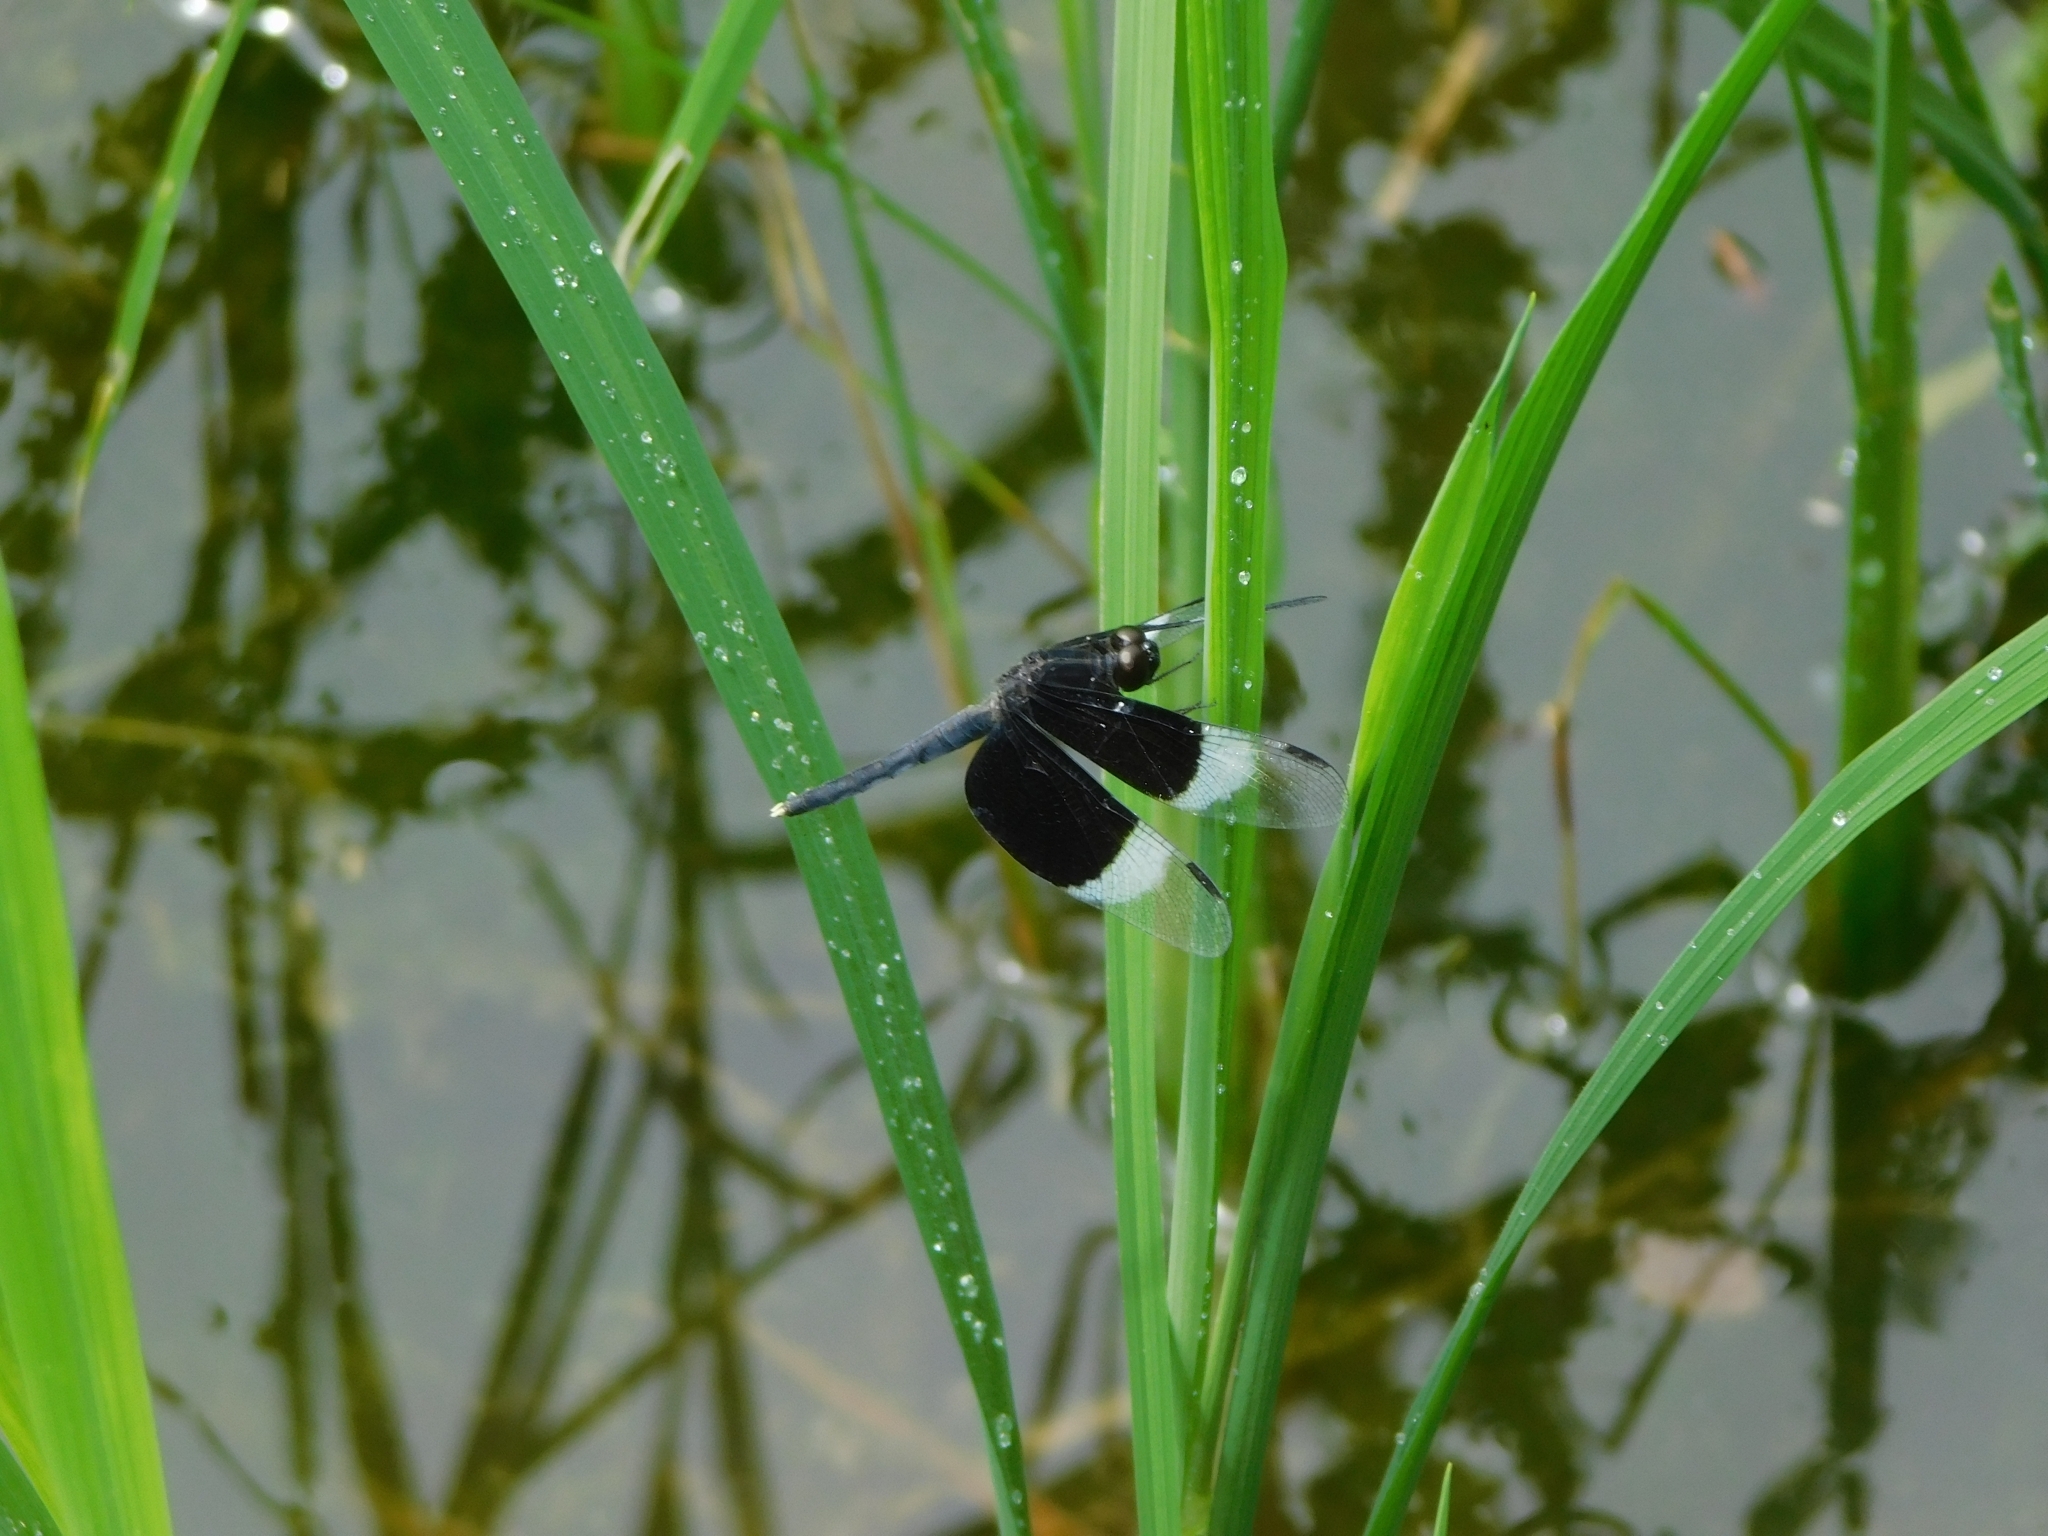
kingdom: Animalia
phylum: Arthropoda
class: Insecta
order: Odonata
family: Libellulidae
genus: Neurothemis
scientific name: Neurothemis tullia
